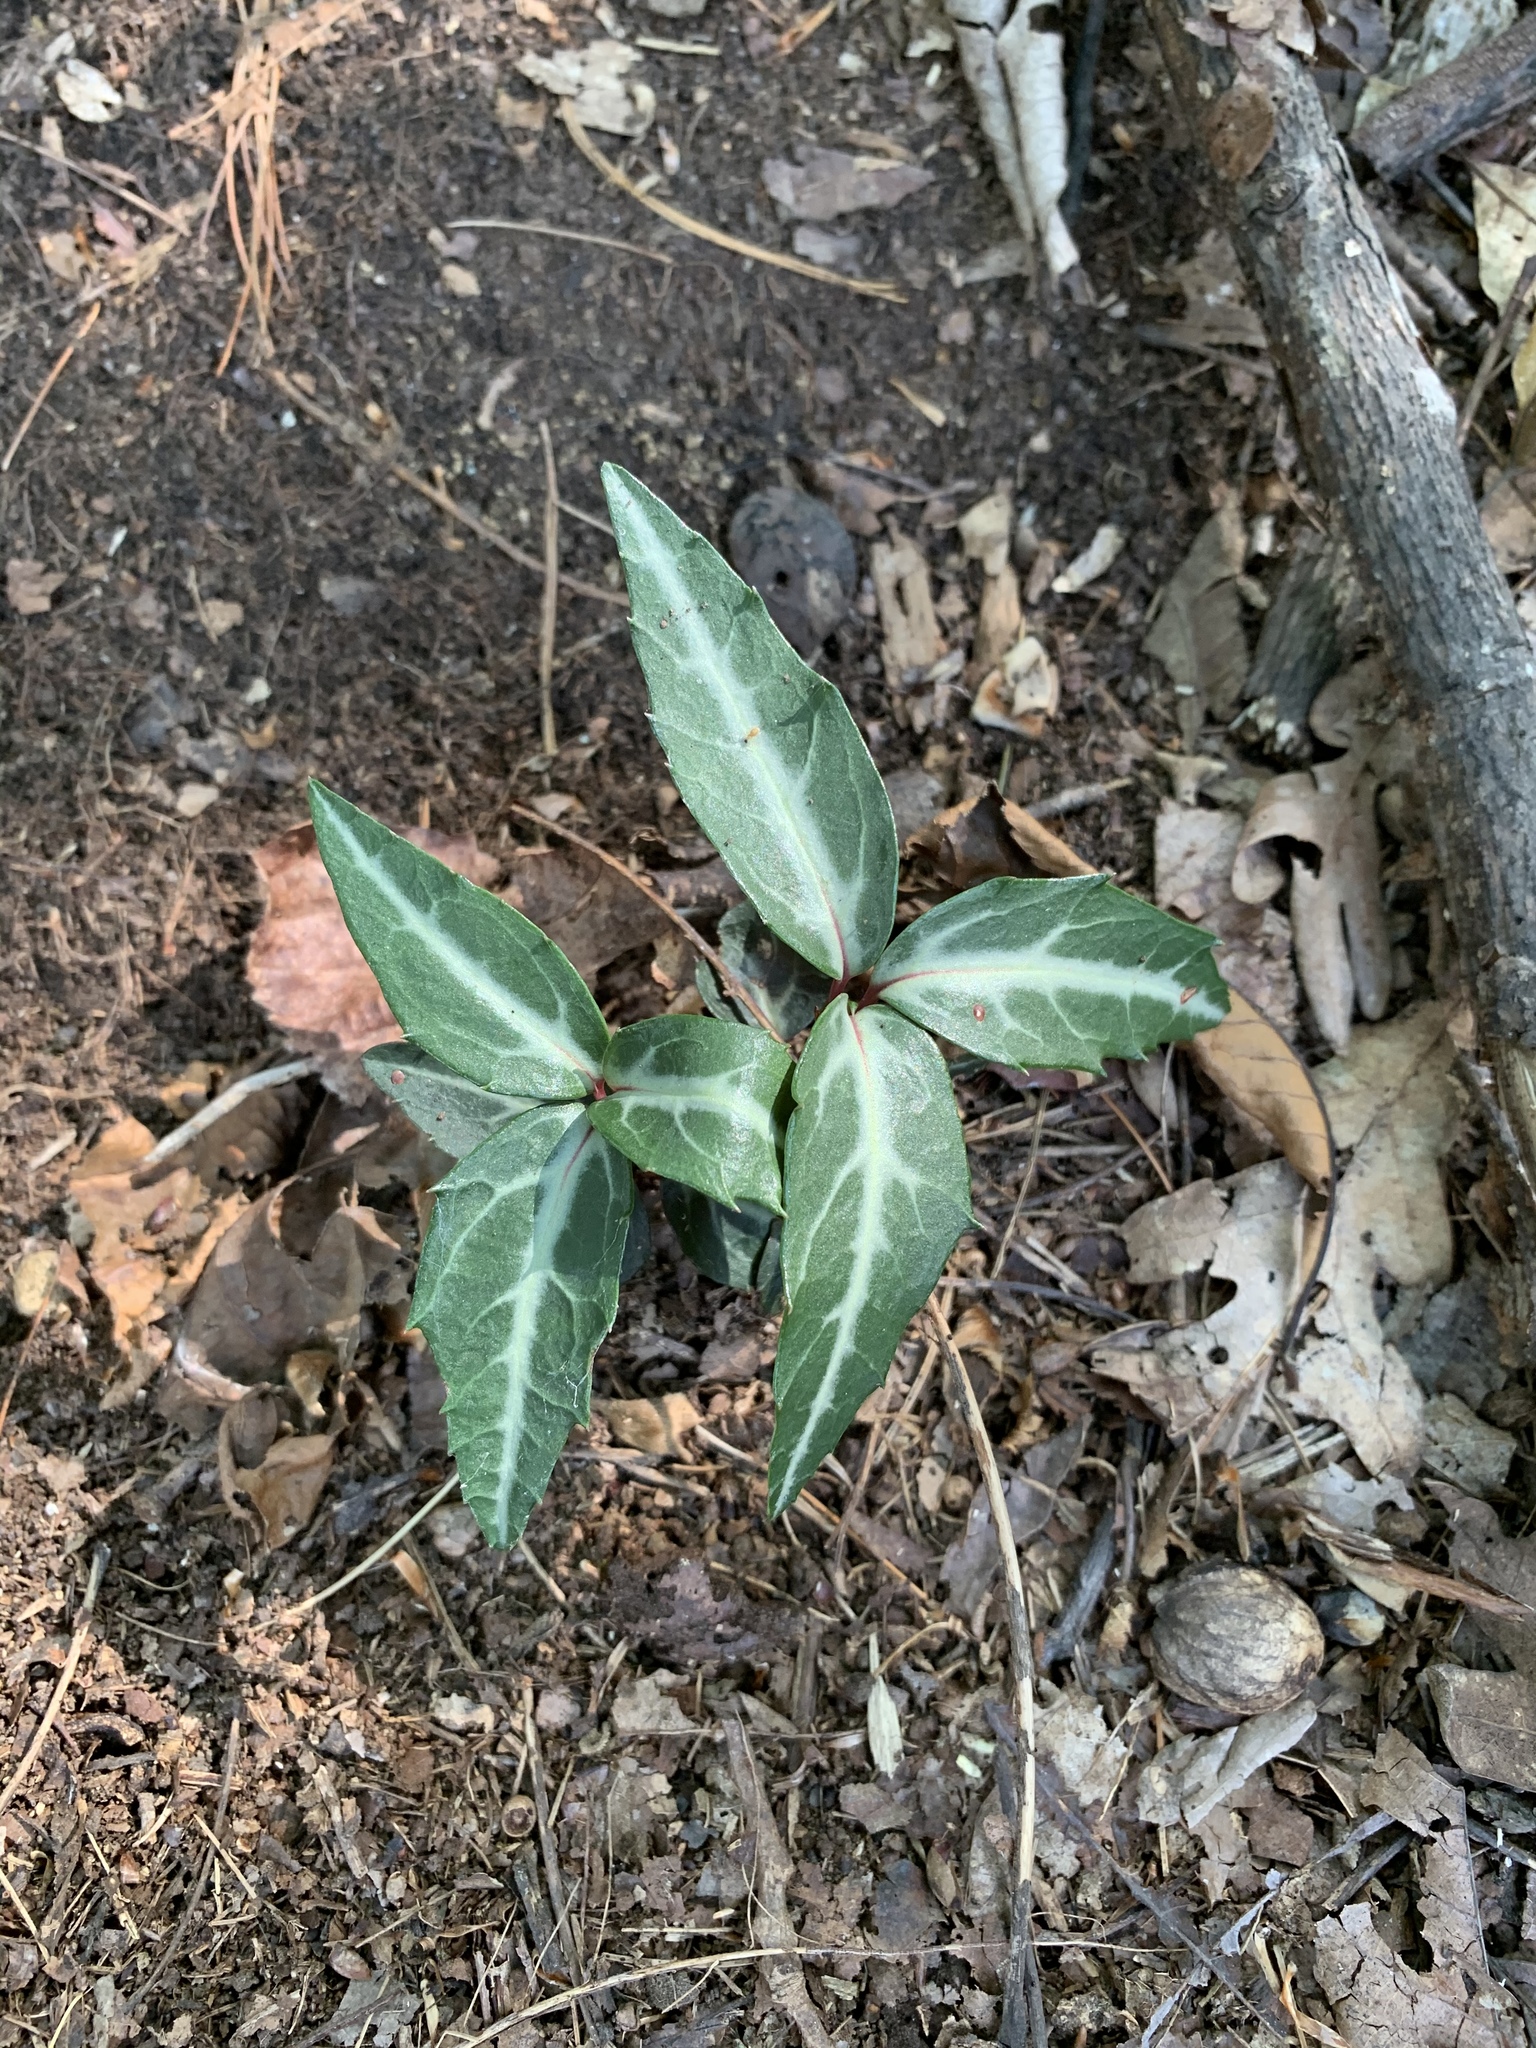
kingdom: Plantae
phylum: Tracheophyta
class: Magnoliopsida
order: Ericales
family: Ericaceae
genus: Chimaphila
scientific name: Chimaphila maculata
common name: Spotted pipsissewa
